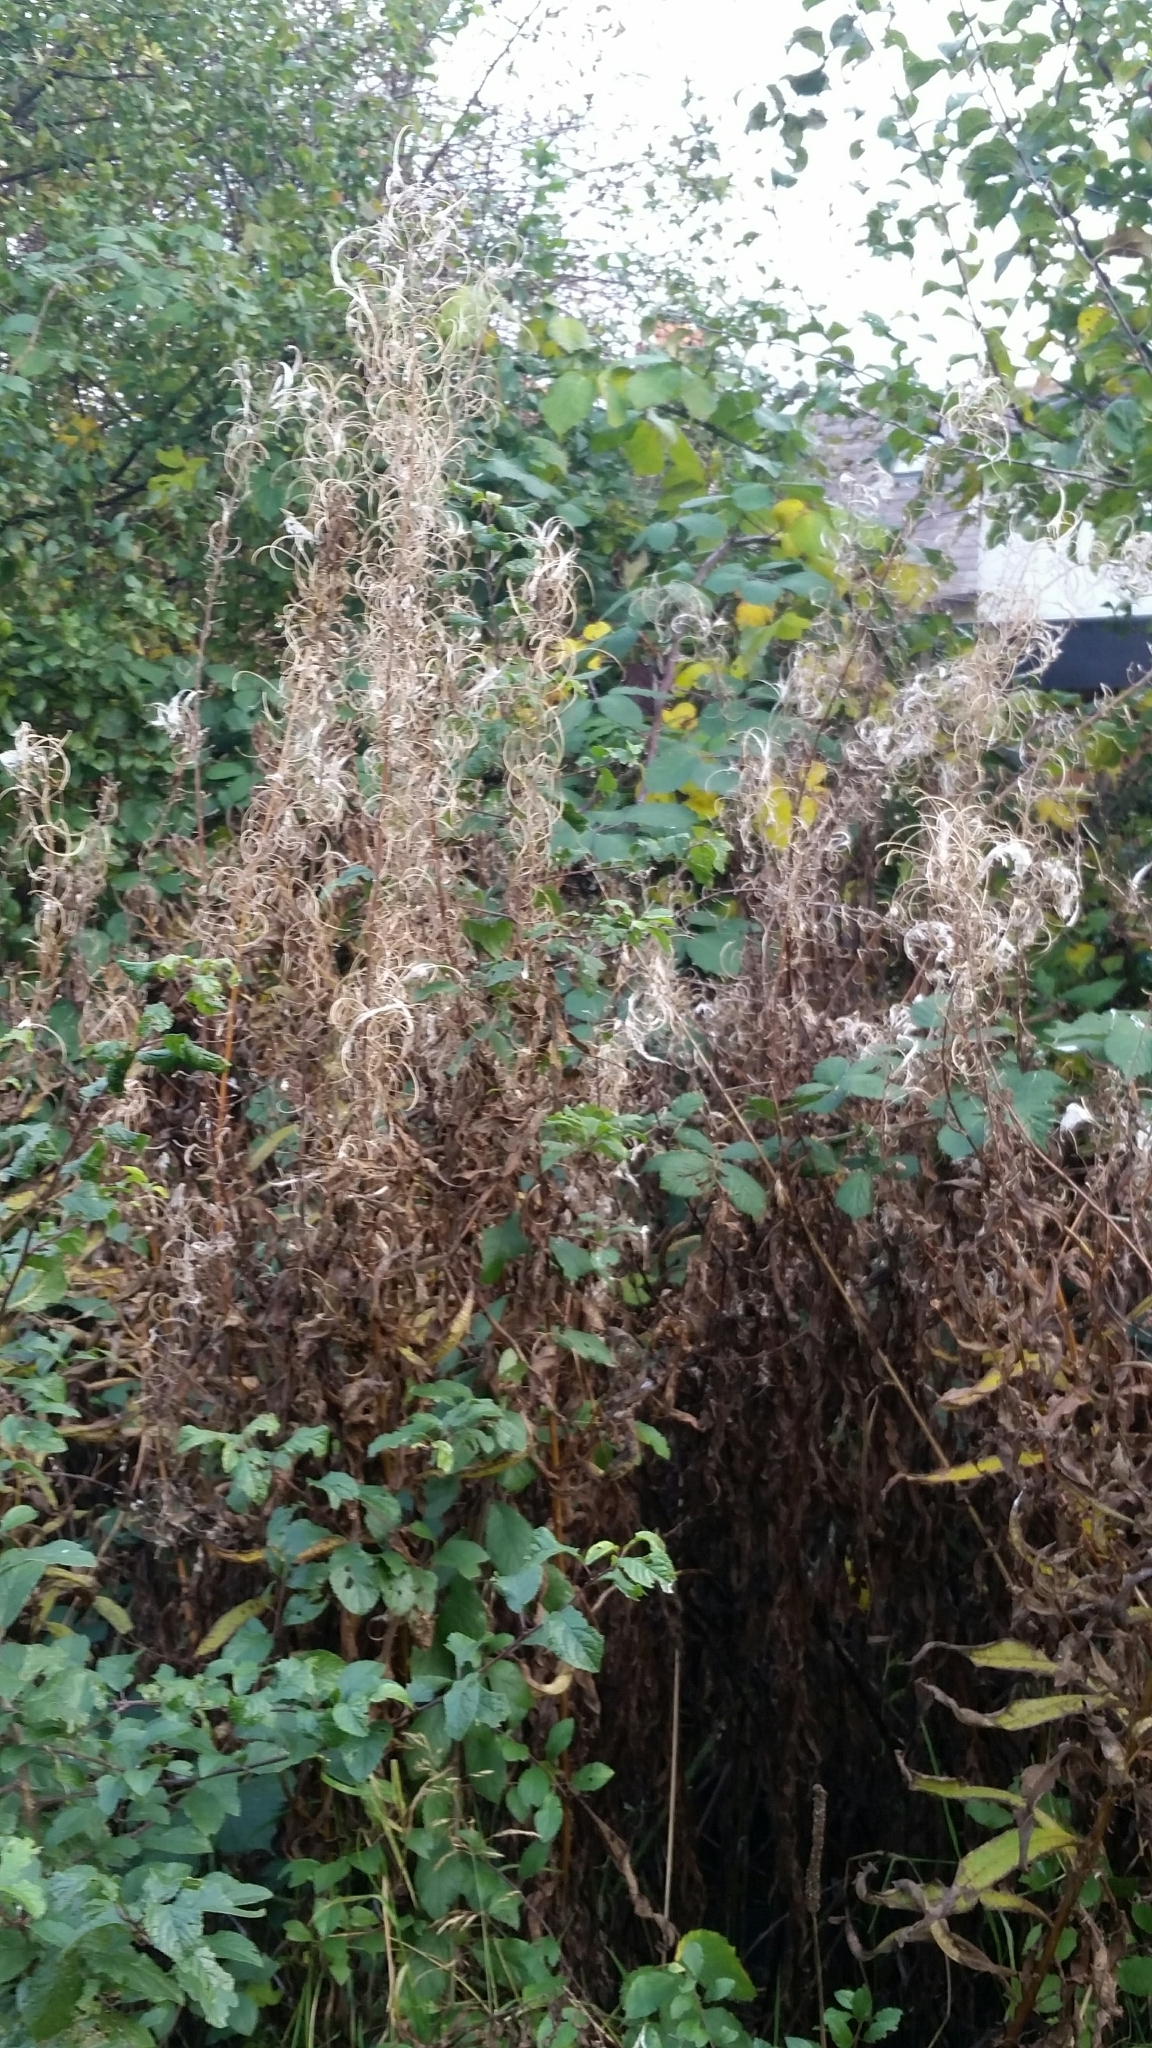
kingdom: Plantae
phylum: Tracheophyta
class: Magnoliopsida
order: Myrtales
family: Onagraceae
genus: Chamaenerion
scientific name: Chamaenerion angustifolium
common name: Fireweed
